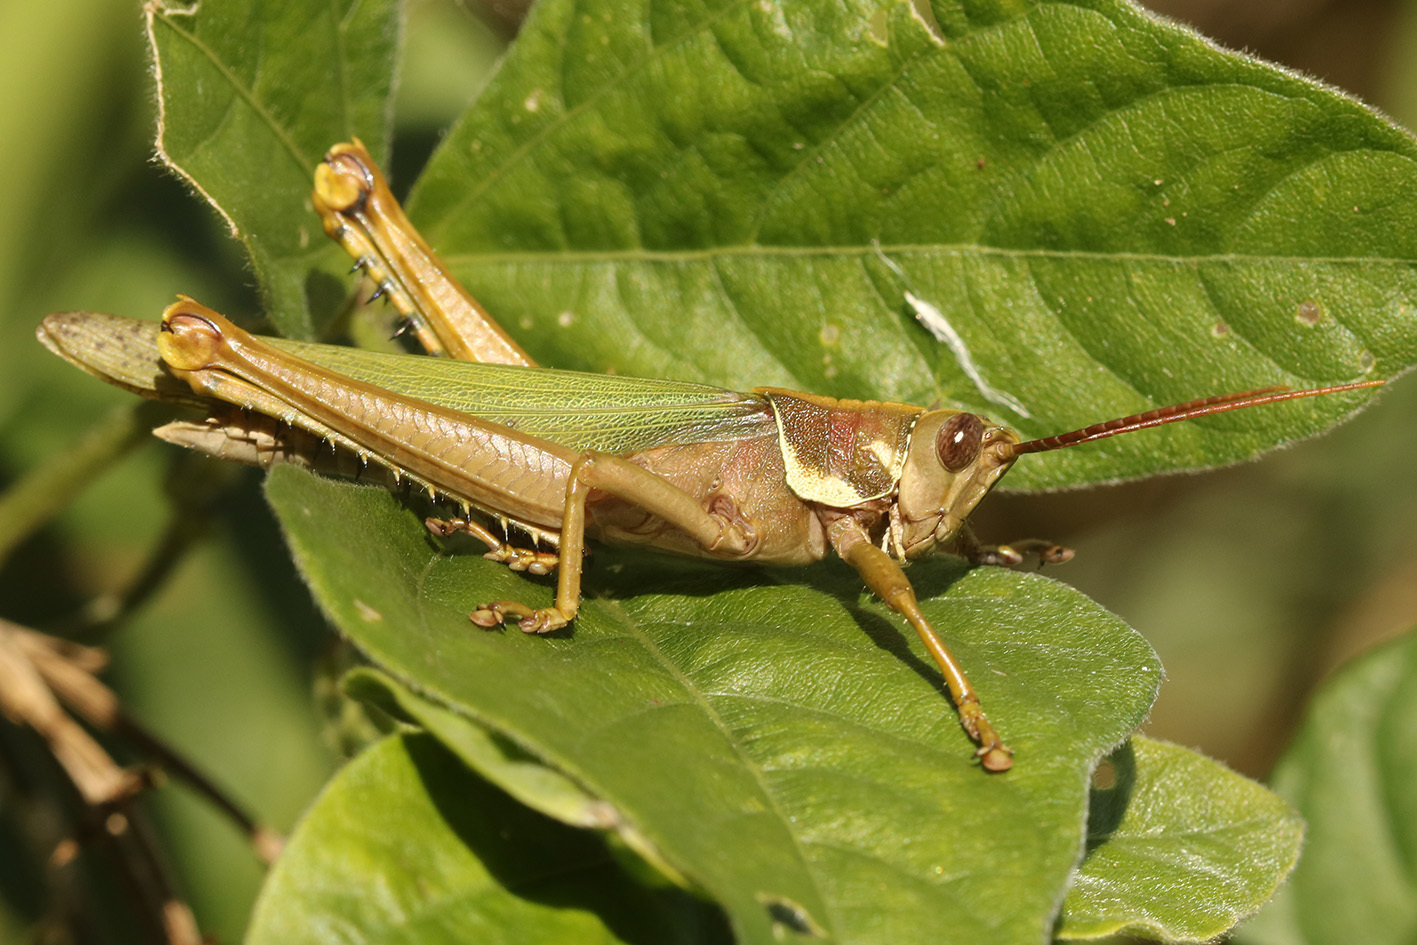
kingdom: Animalia
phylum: Arthropoda
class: Insecta
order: Orthoptera
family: Romaleidae
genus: Coryacris
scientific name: Coryacris angustipennis
